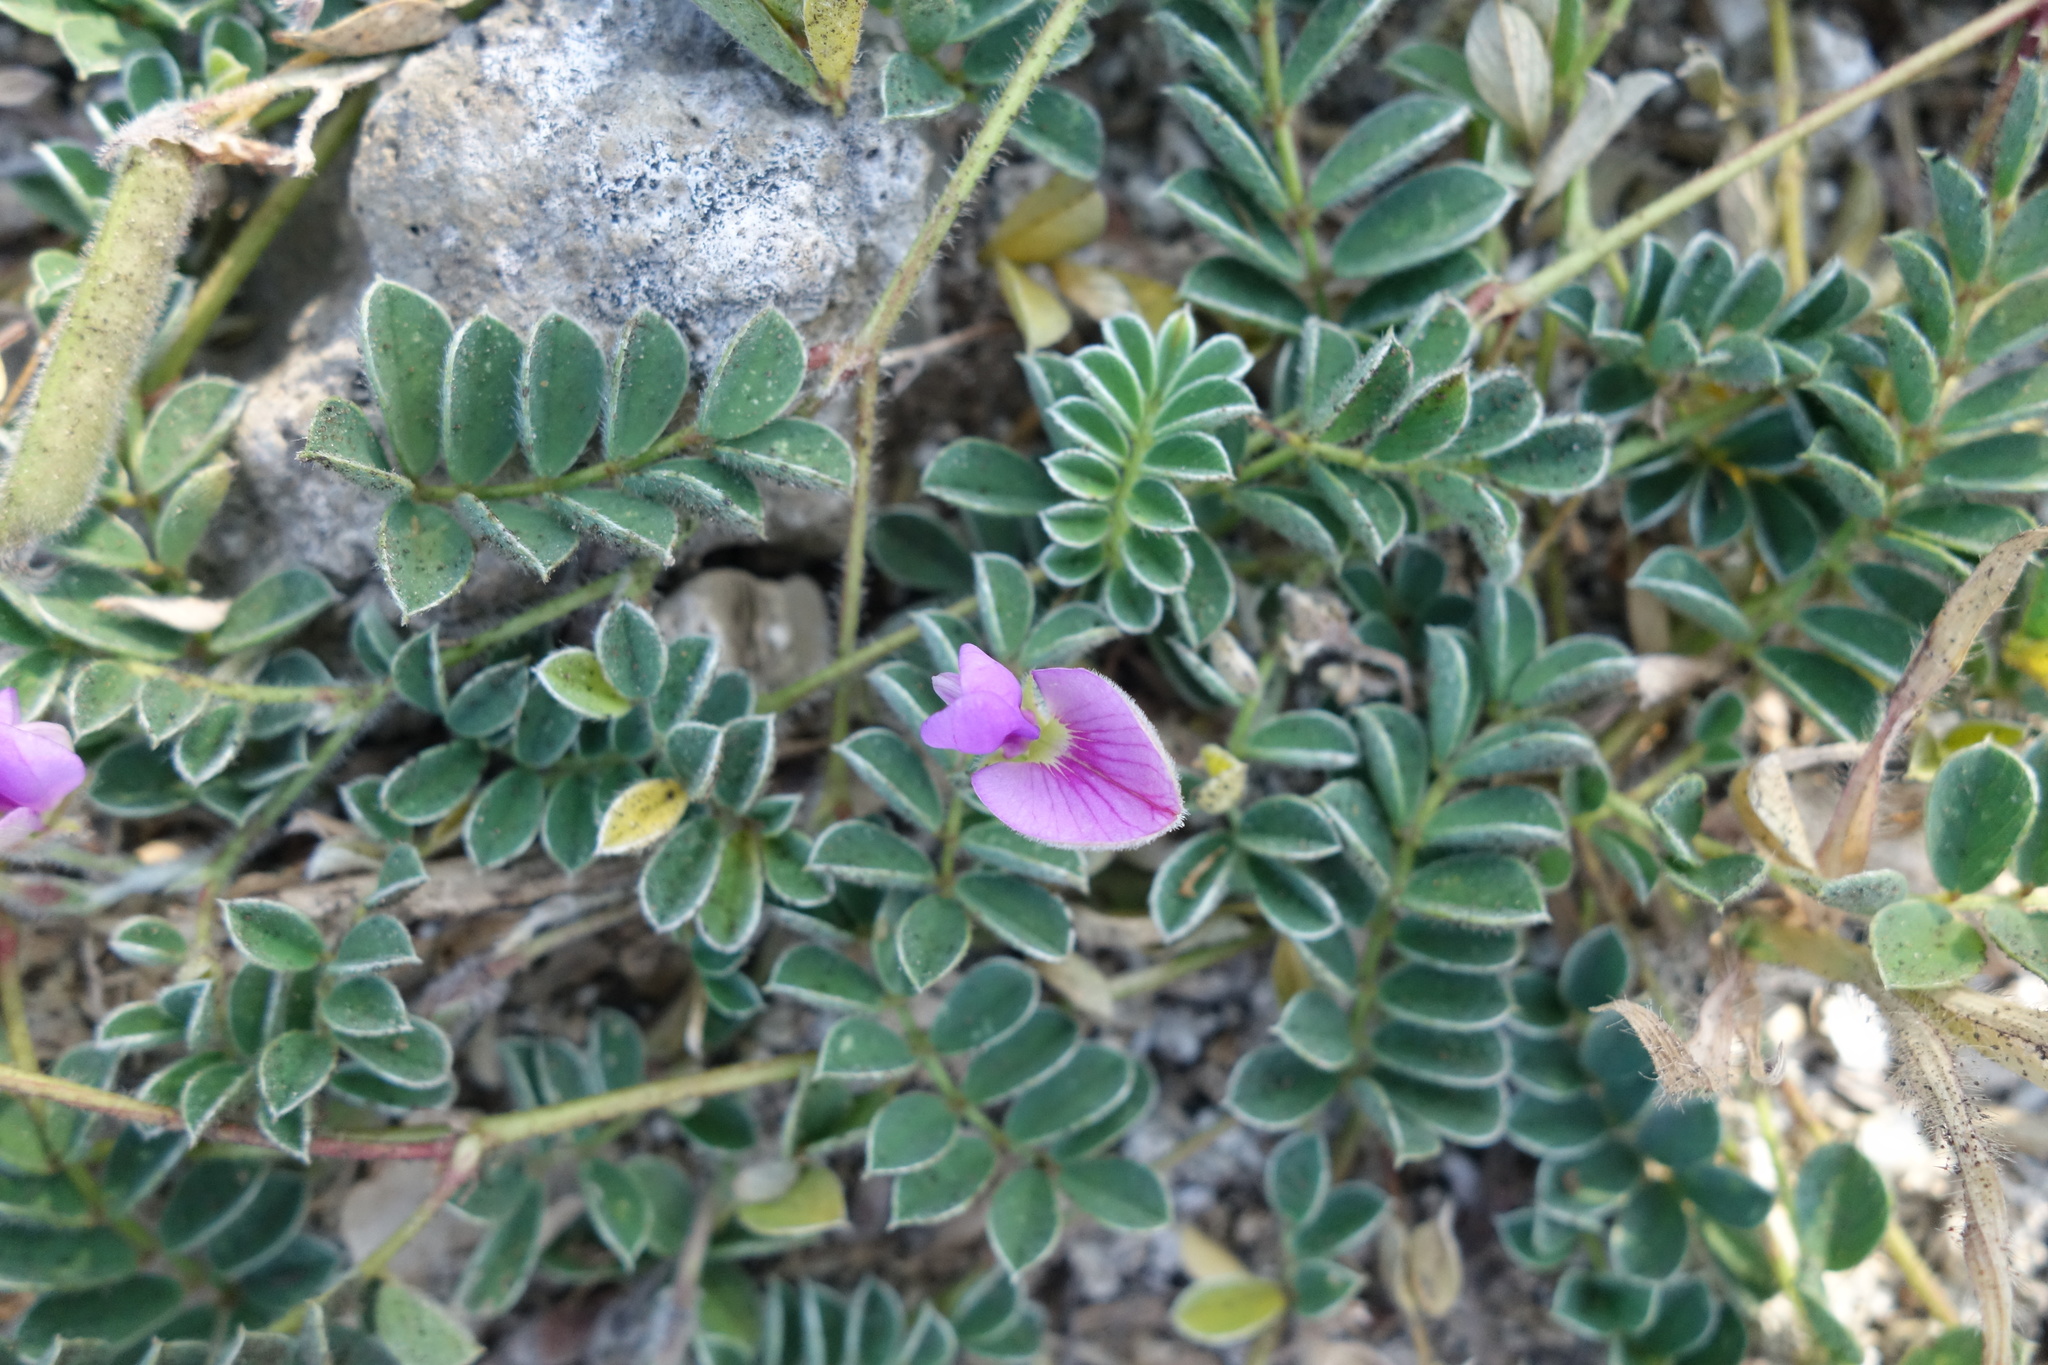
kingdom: Plantae
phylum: Tracheophyta
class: Magnoliopsida
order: Fabales
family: Fabaceae
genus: Tephrosia
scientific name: Tephrosia obovata
